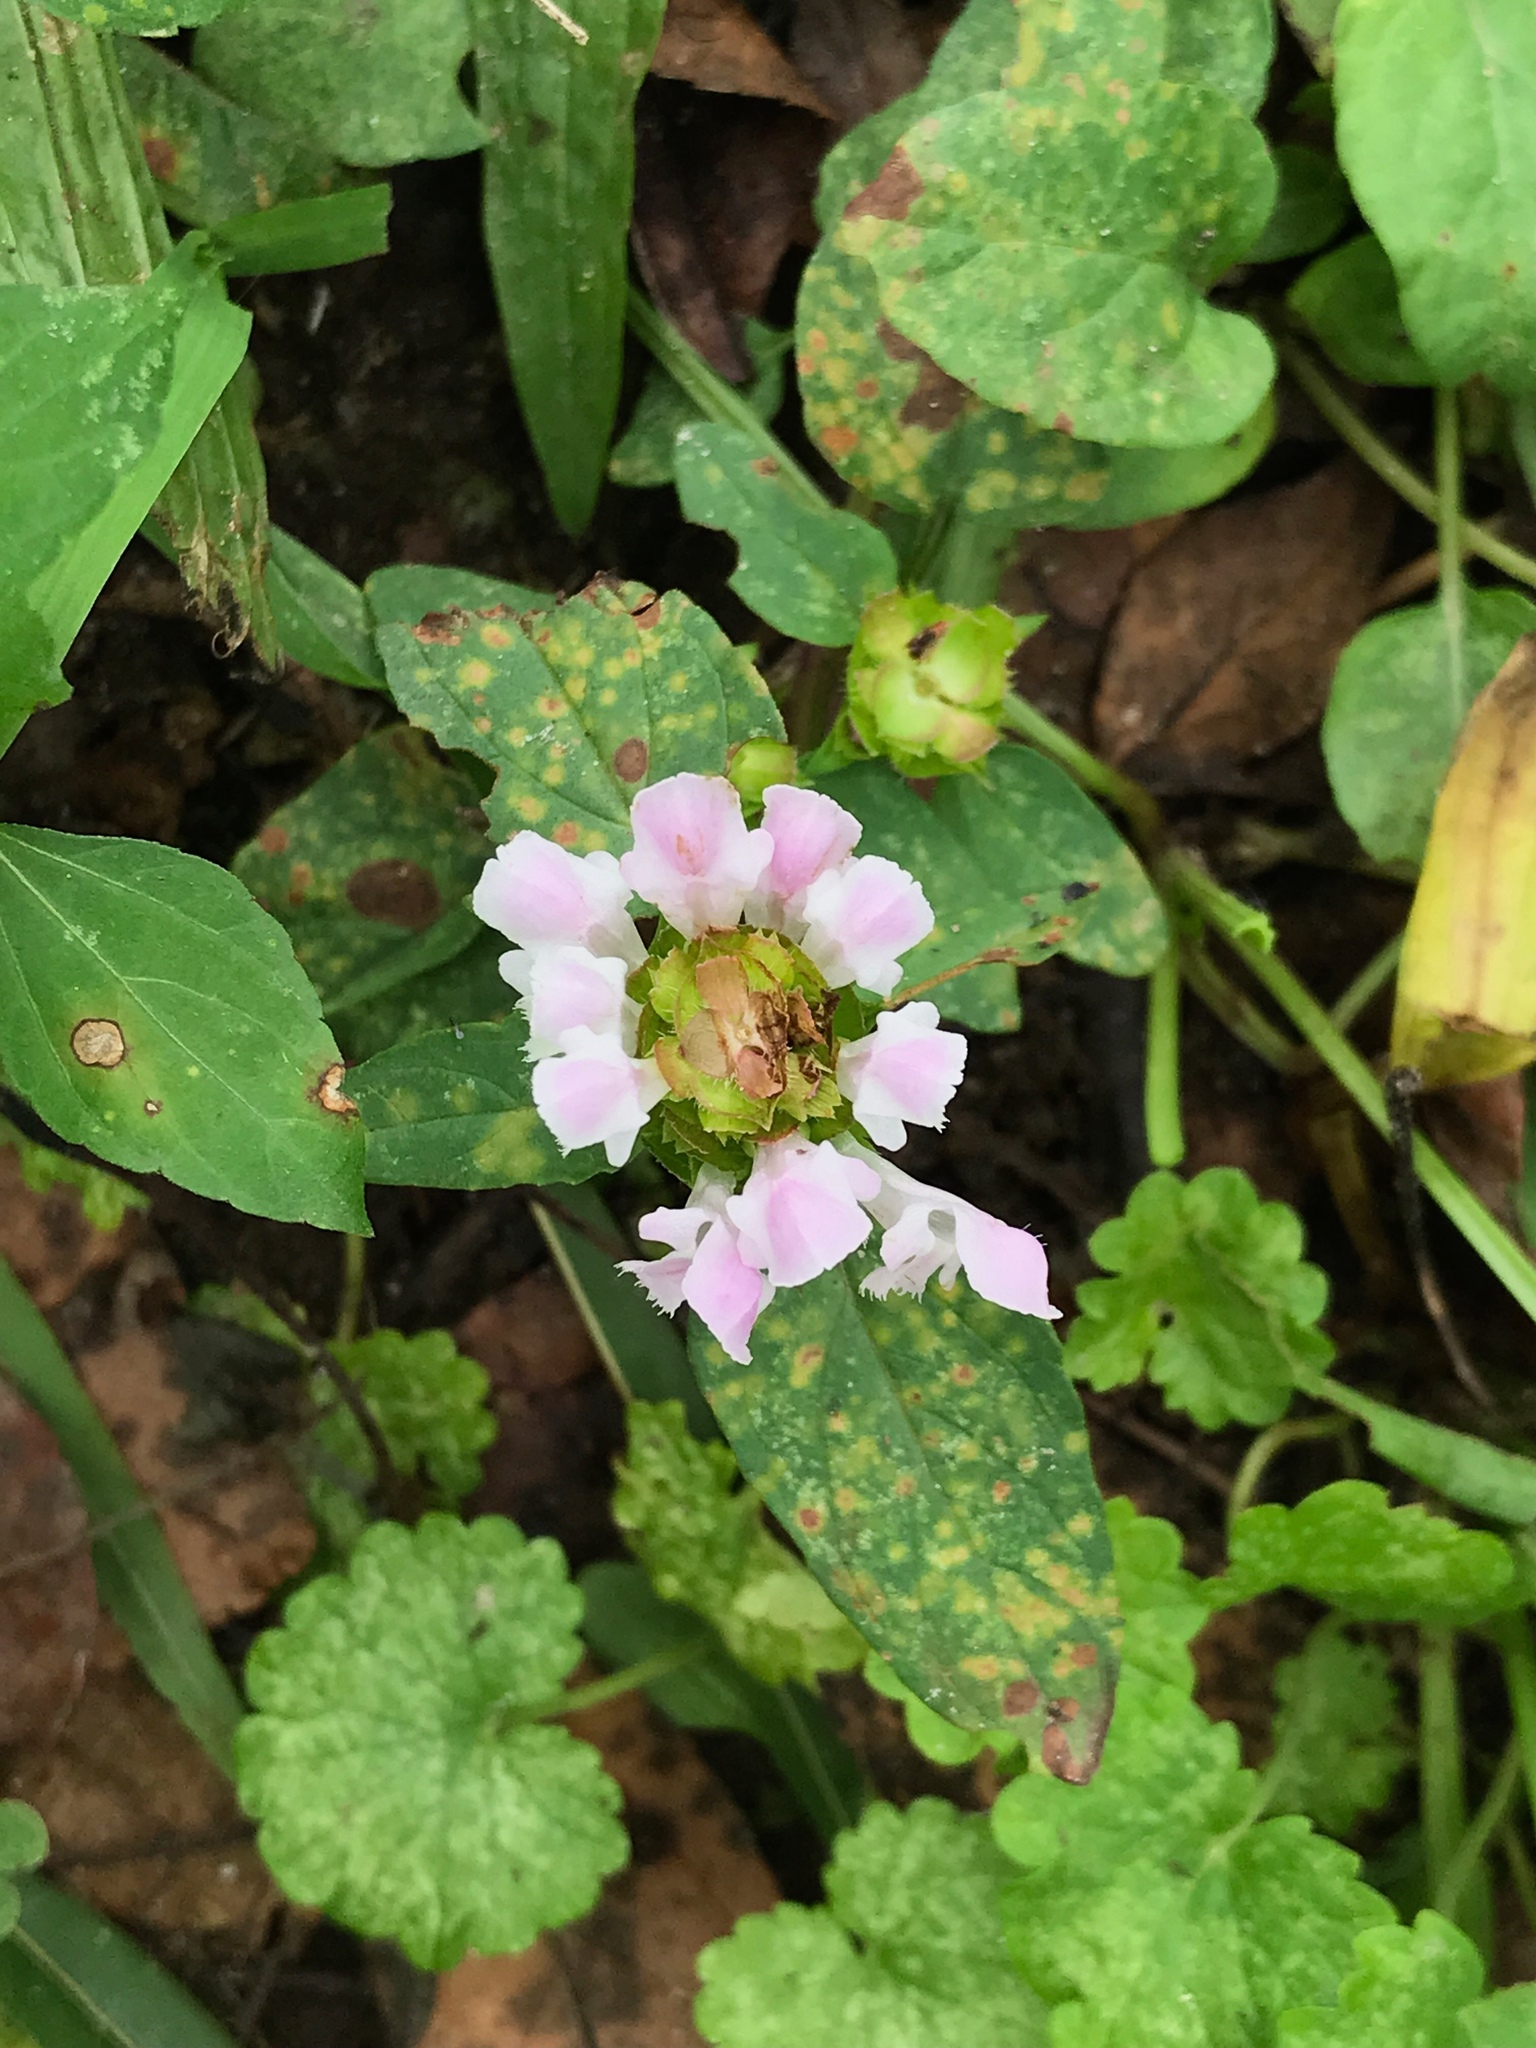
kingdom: Plantae
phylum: Tracheophyta
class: Magnoliopsida
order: Lamiales
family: Lamiaceae
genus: Prunella
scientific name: Prunella vulgaris
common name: Heal-all
